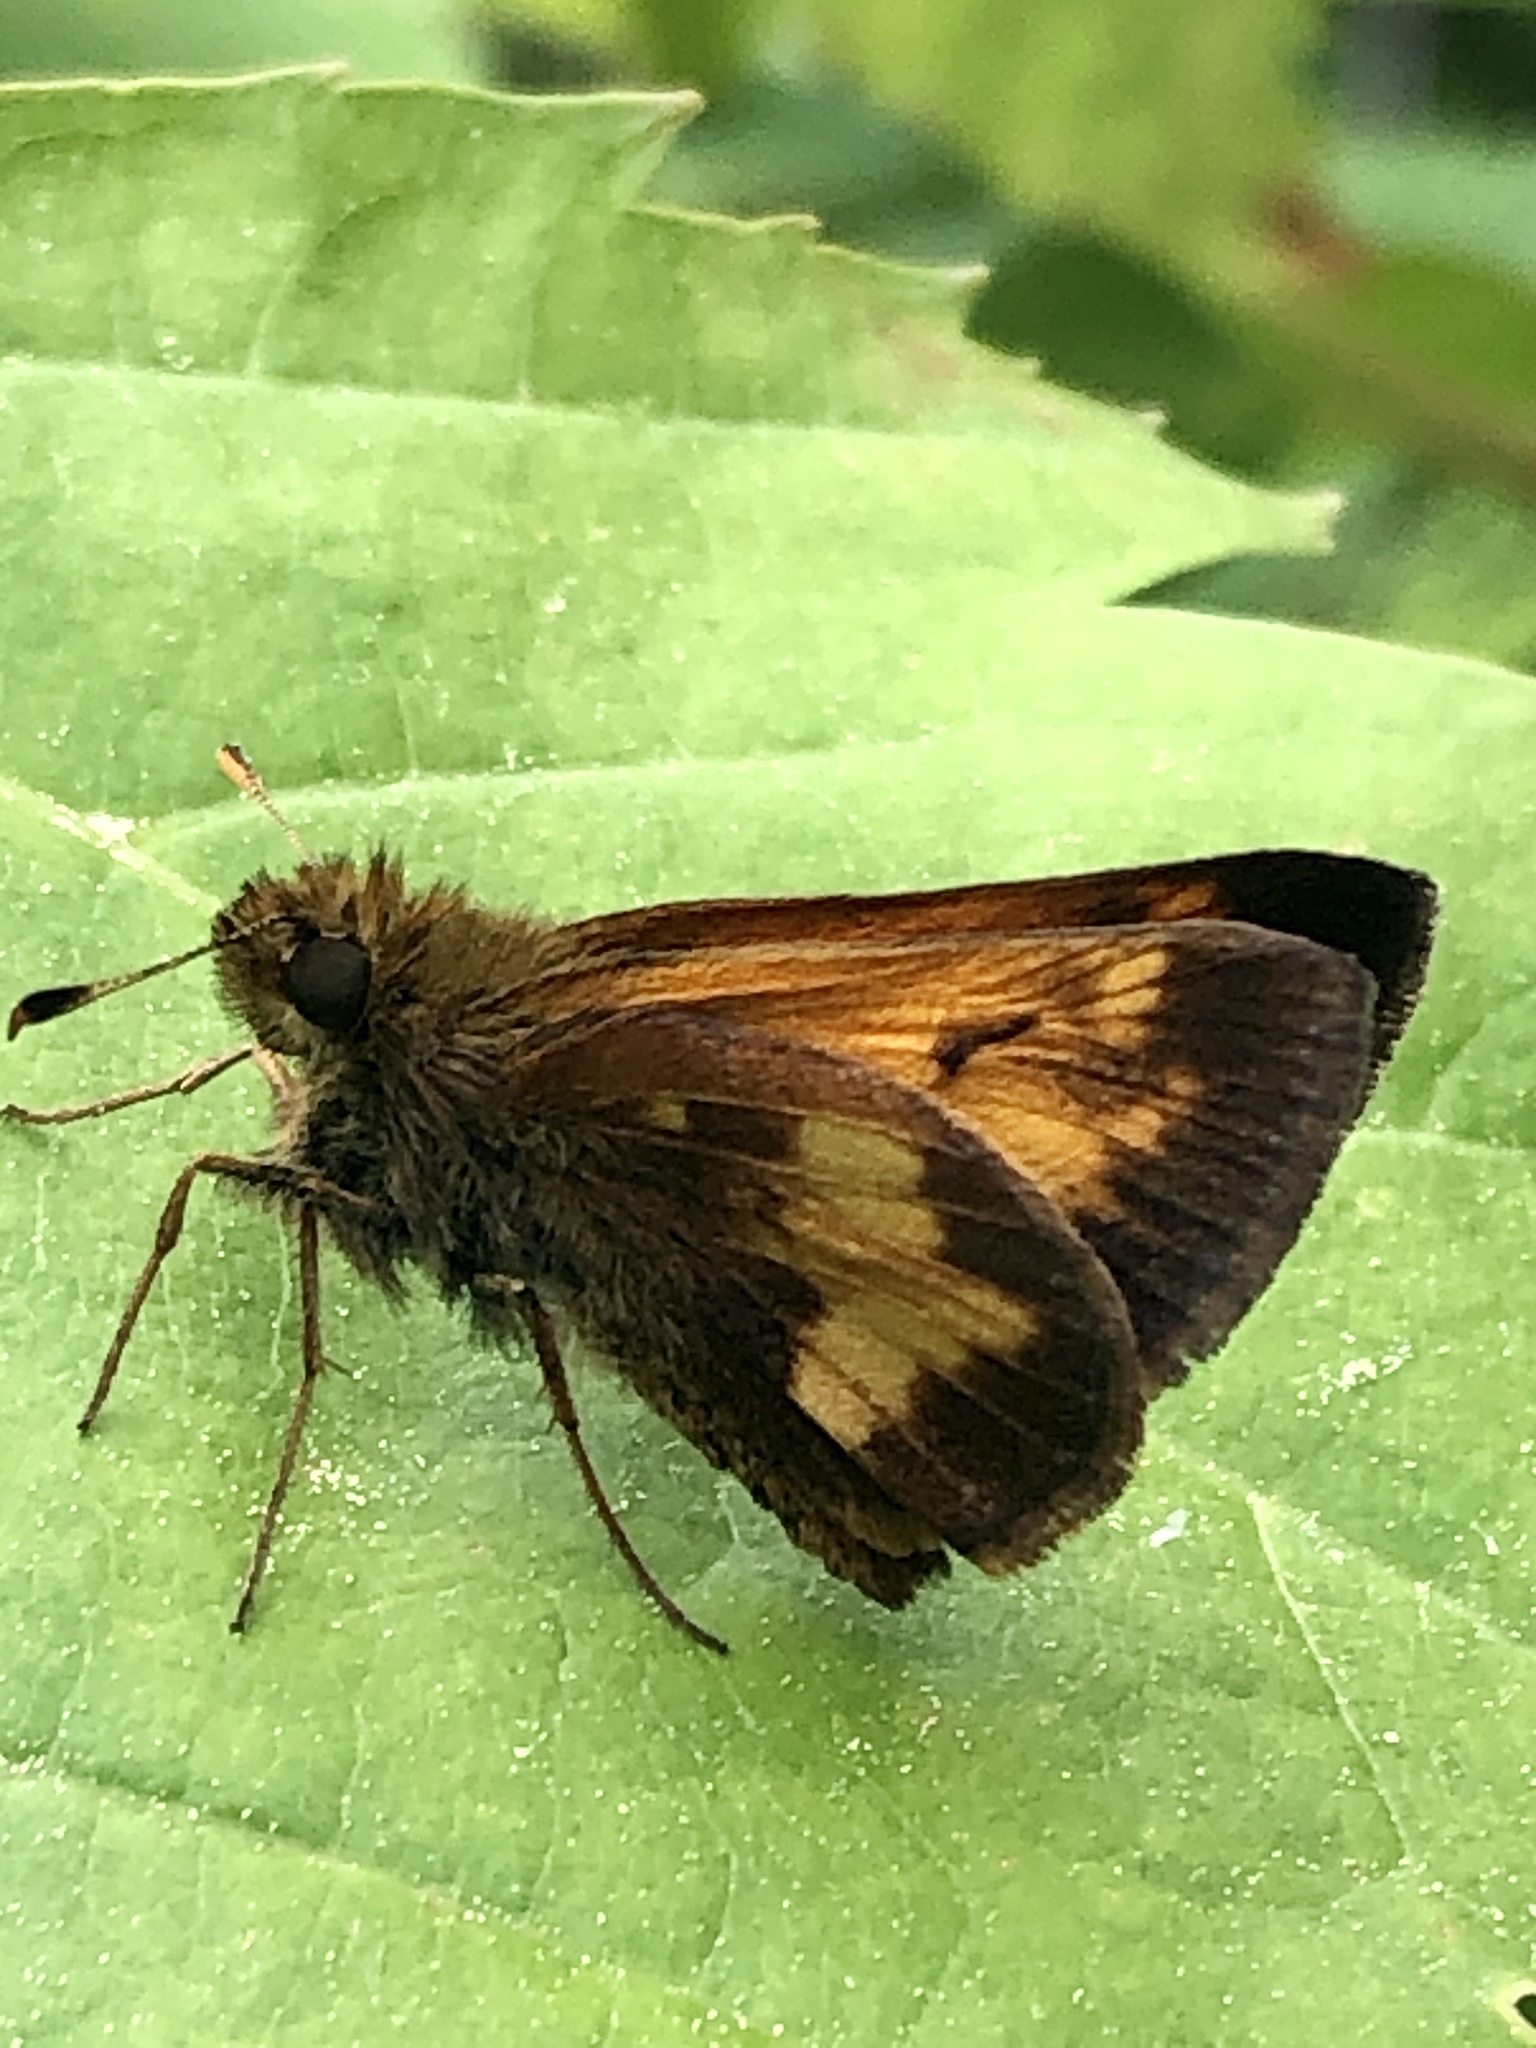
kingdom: Animalia
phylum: Arthropoda
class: Insecta
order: Lepidoptera
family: Hesperiidae
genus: Lon
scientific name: Lon hobomok
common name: Hobomok skipper
